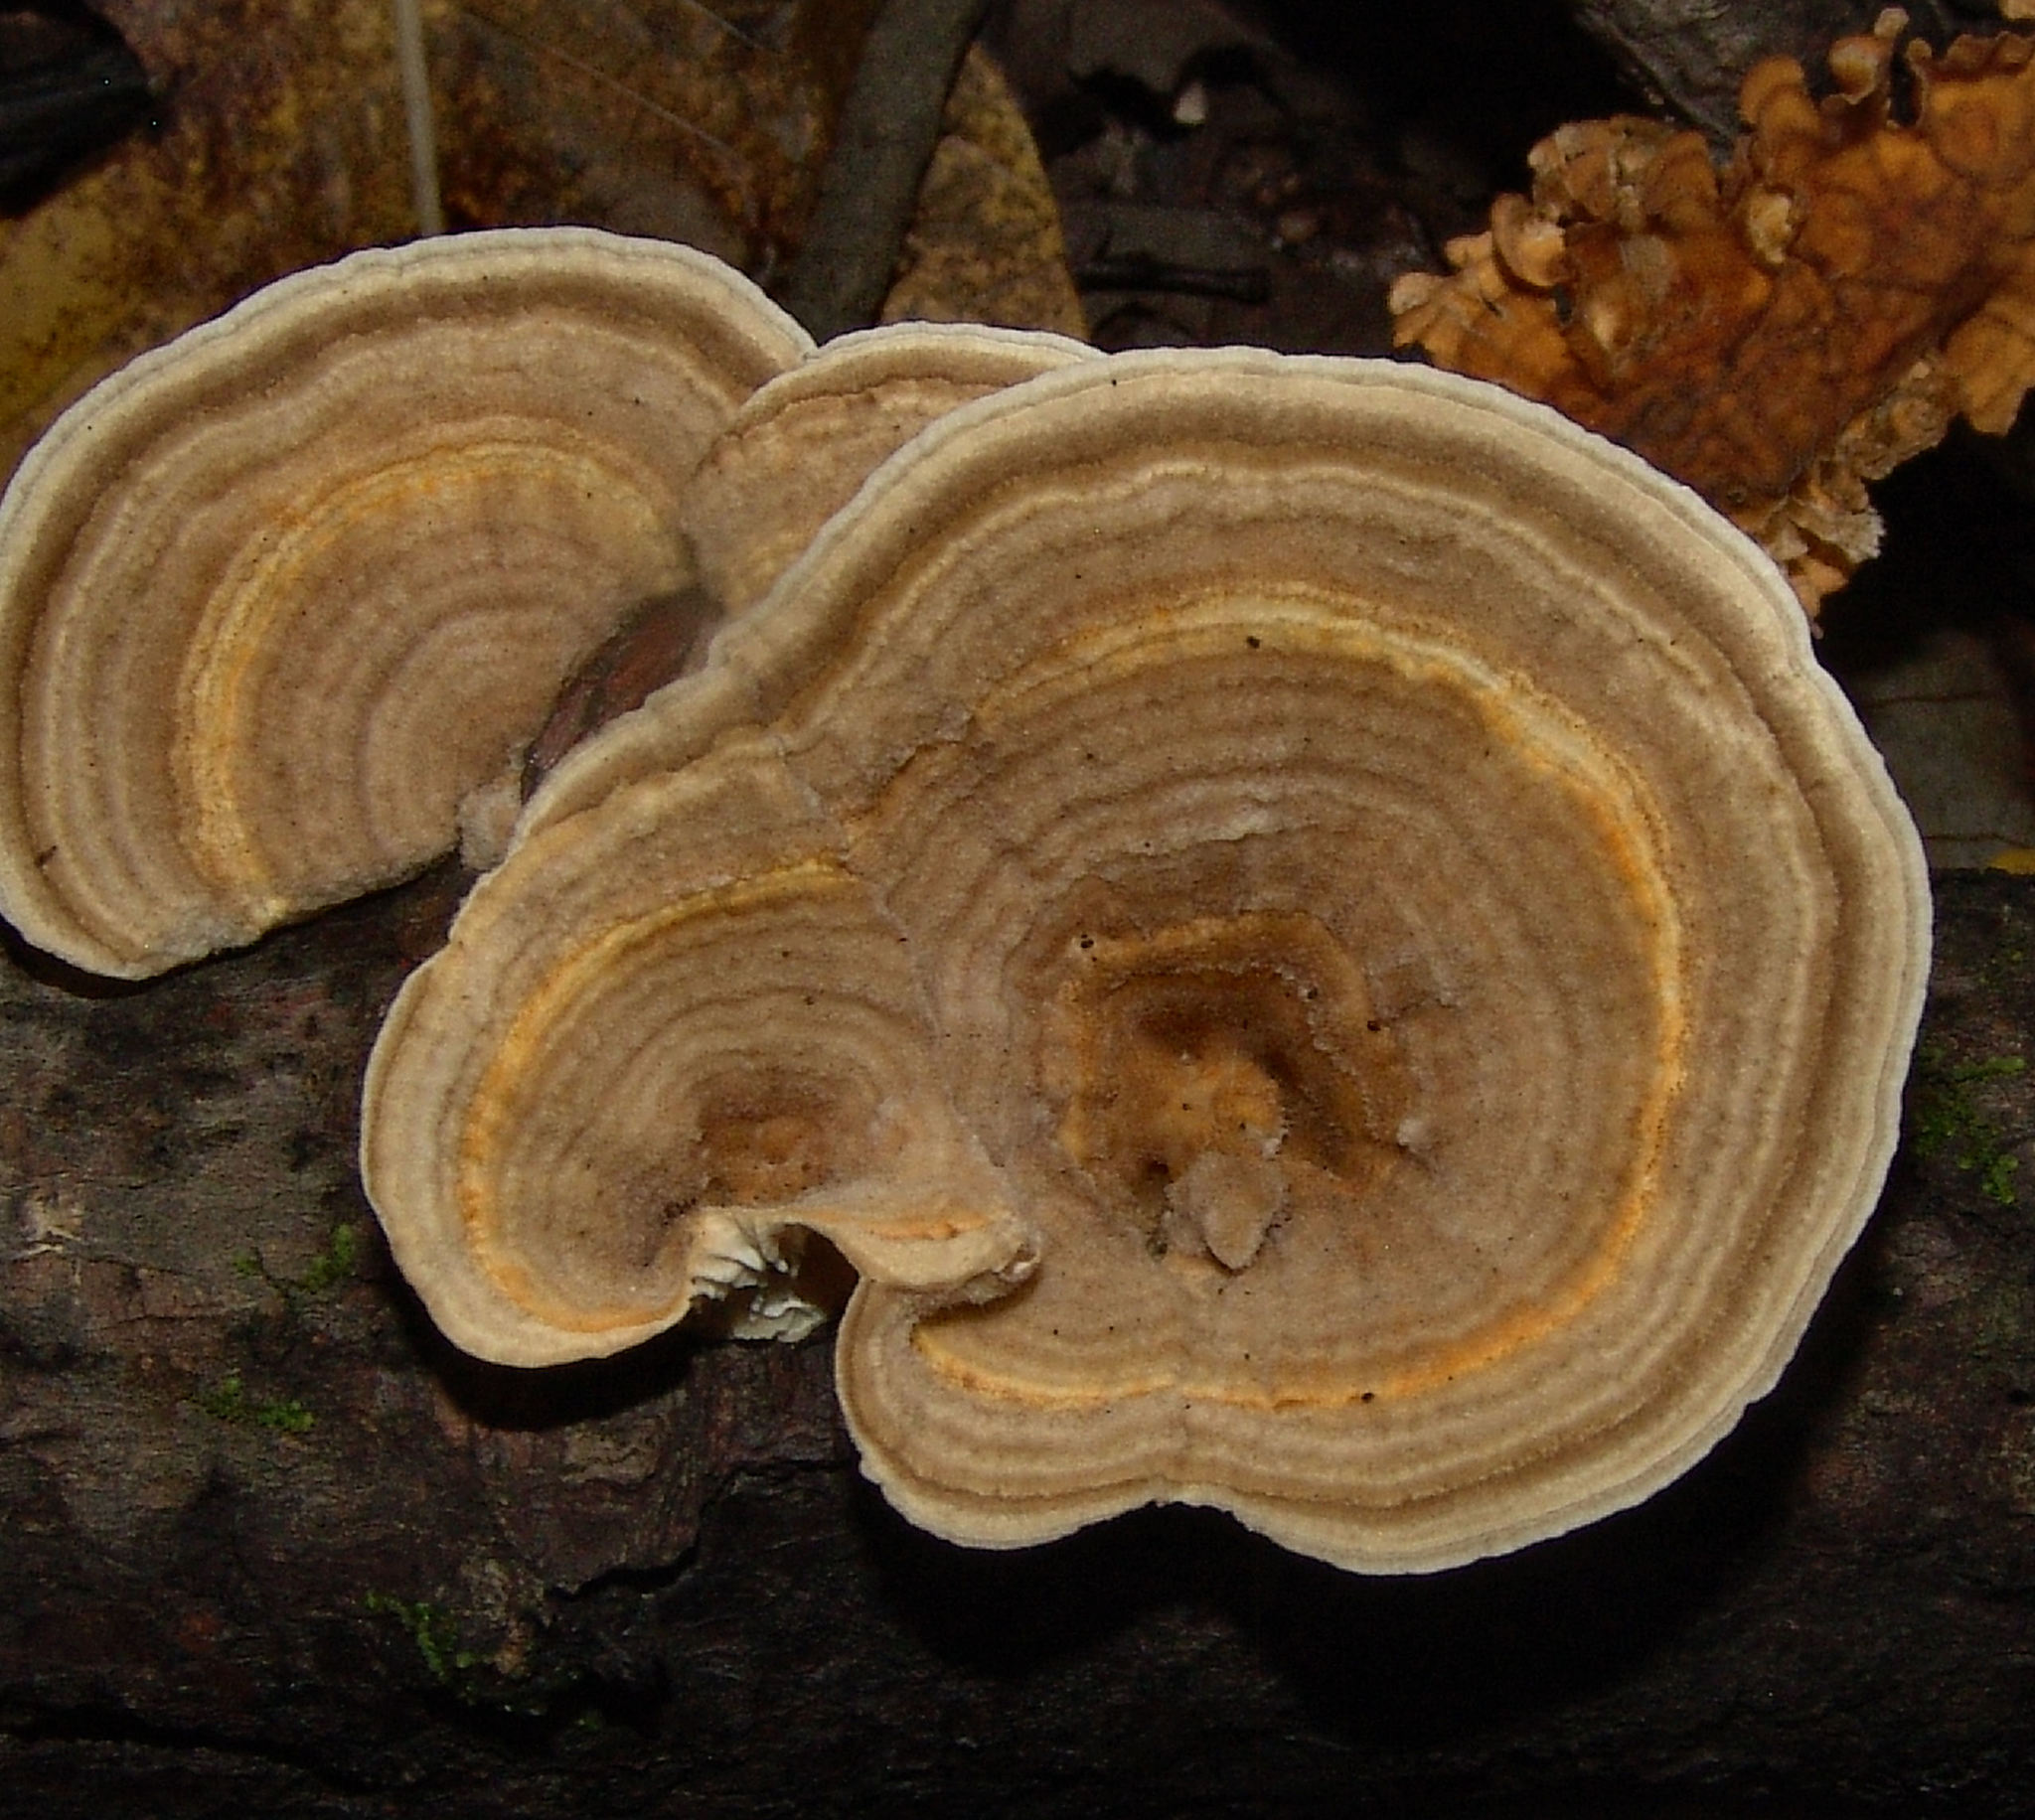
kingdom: Fungi
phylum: Basidiomycota
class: Agaricomycetes
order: Polyporales
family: Polyporaceae
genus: Lenzites
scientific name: Lenzites betulinus
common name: Birch mazegill
